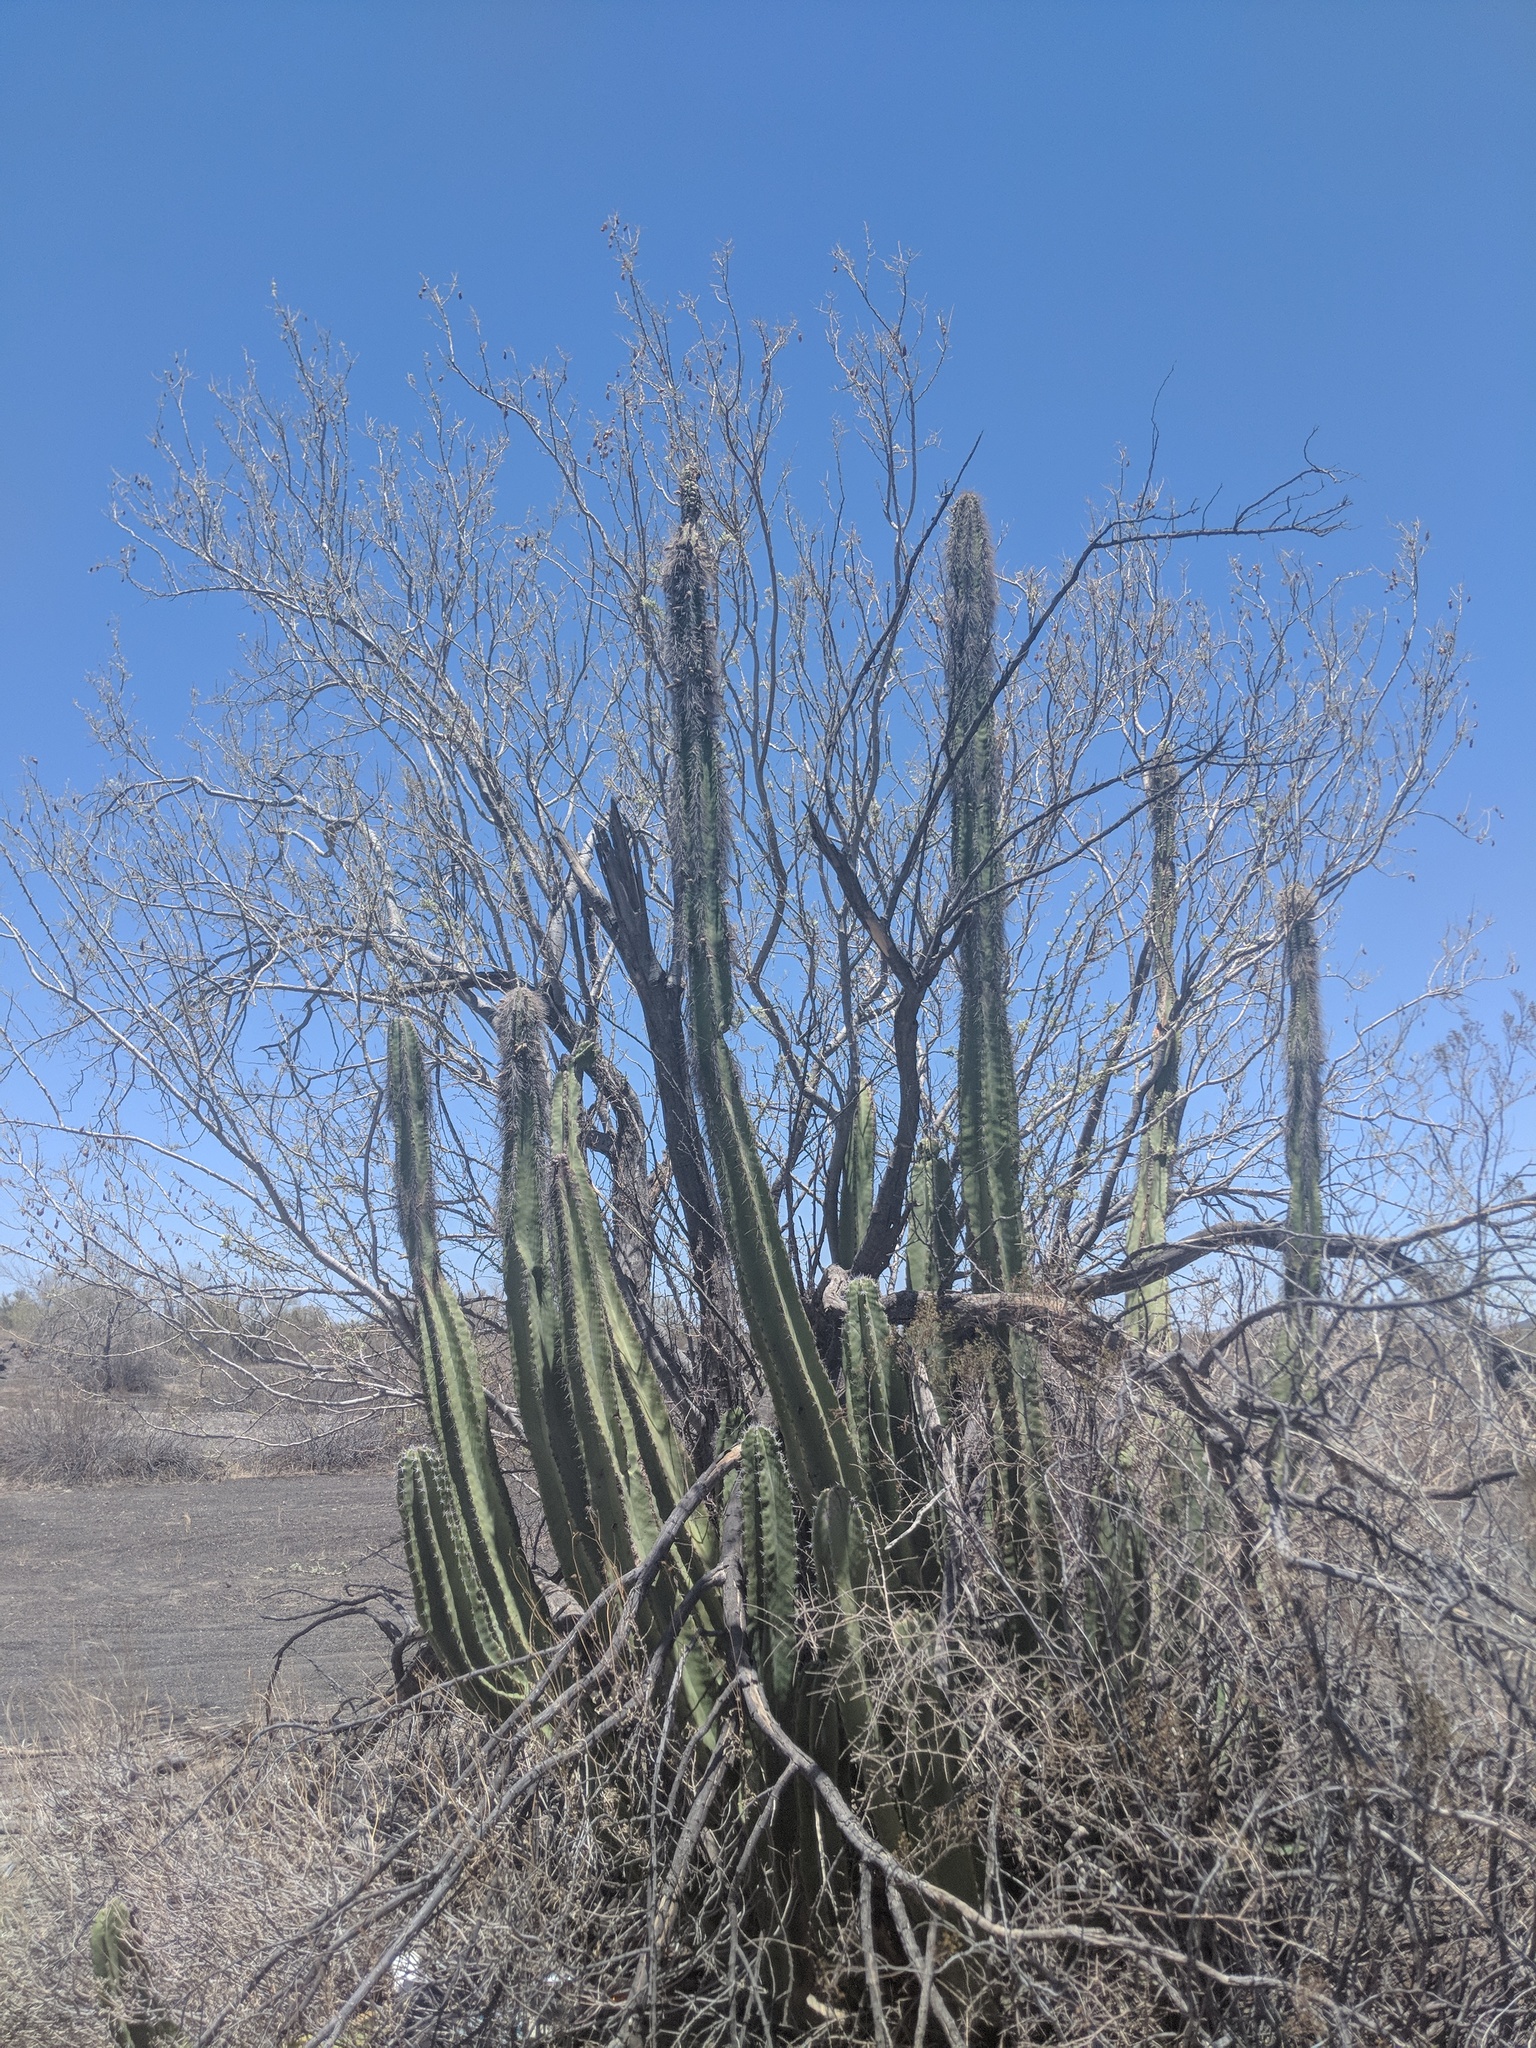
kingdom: Plantae
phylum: Tracheophyta
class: Magnoliopsida
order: Caryophyllales
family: Cactaceae
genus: Pachycereus
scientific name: Pachycereus schottii
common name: Senita cactus
